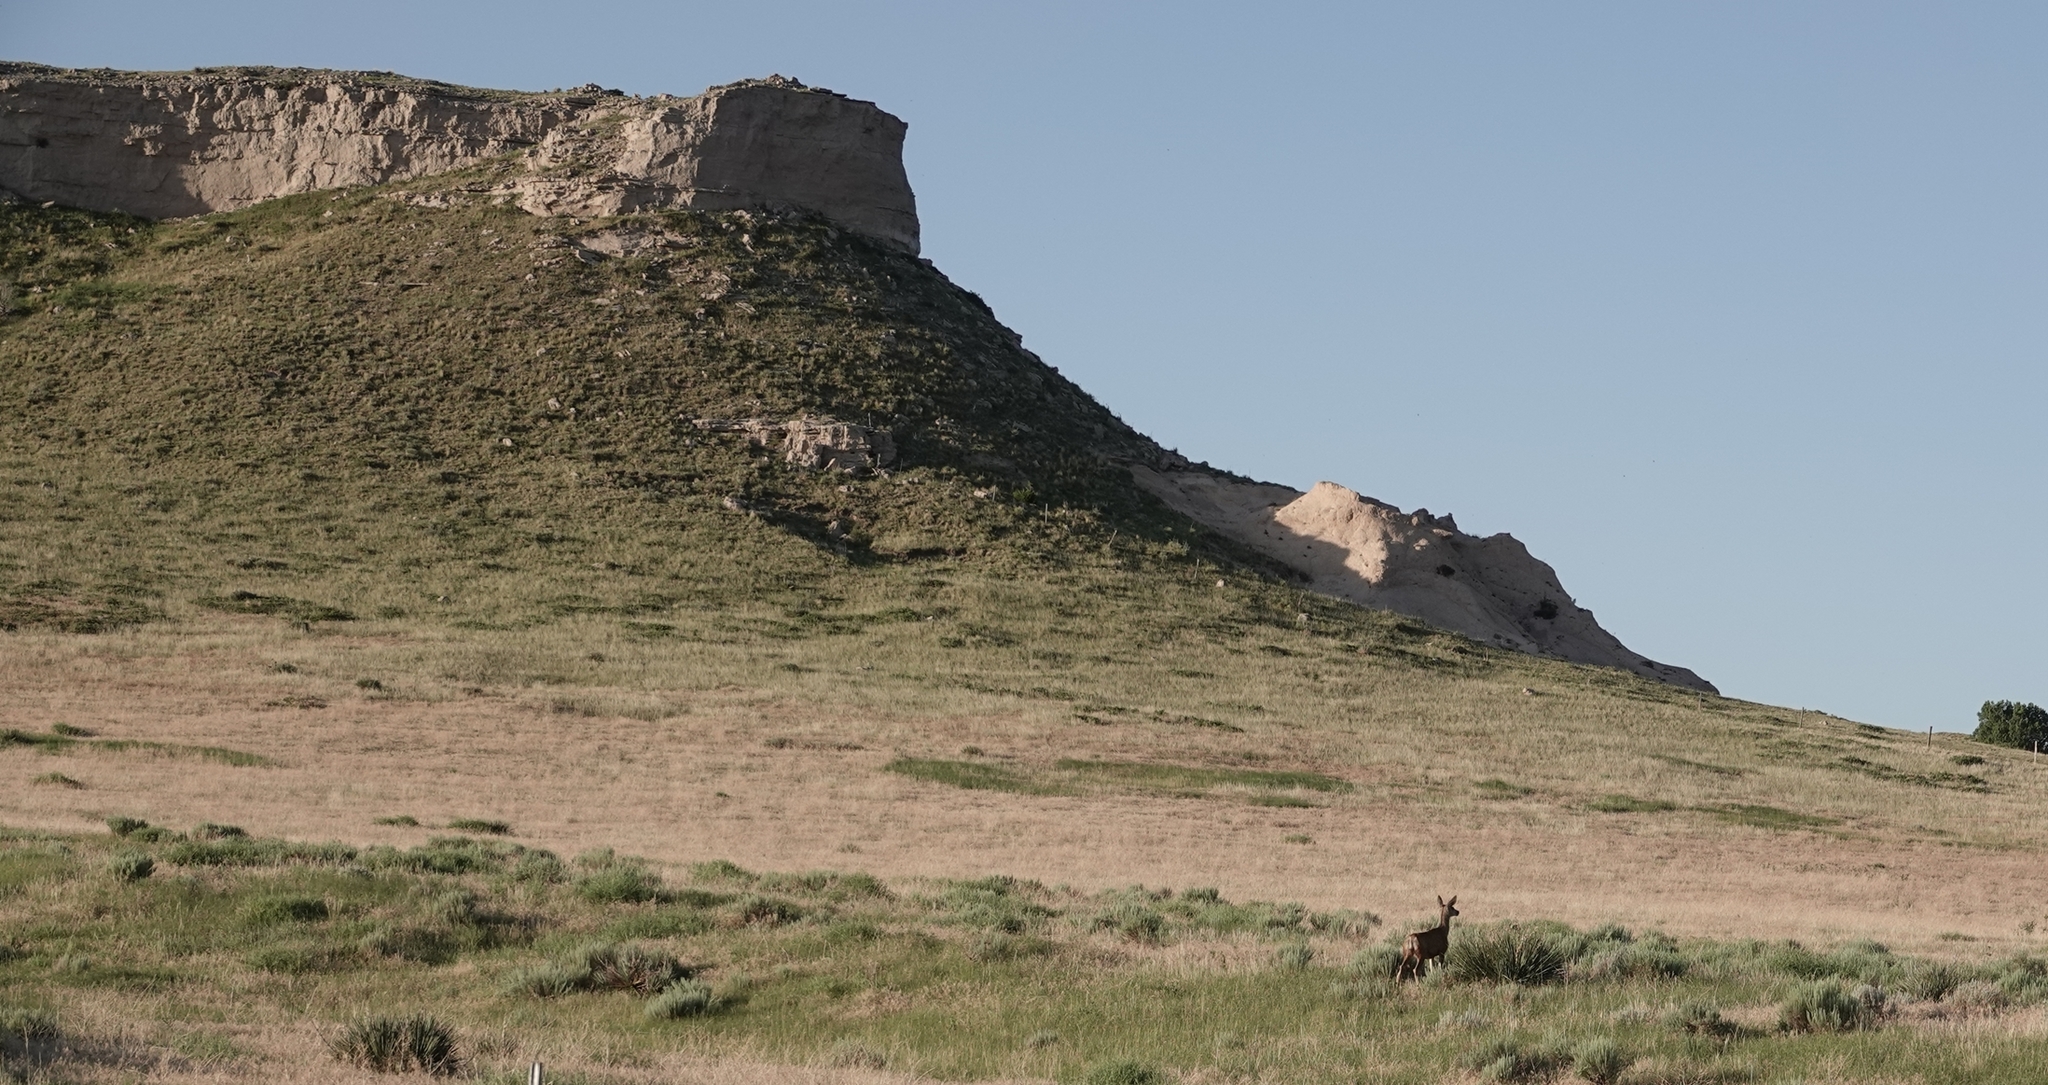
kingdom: Animalia
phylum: Chordata
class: Mammalia
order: Artiodactyla
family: Cervidae
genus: Odocoileus
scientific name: Odocoileus hemionus
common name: Mule deer
